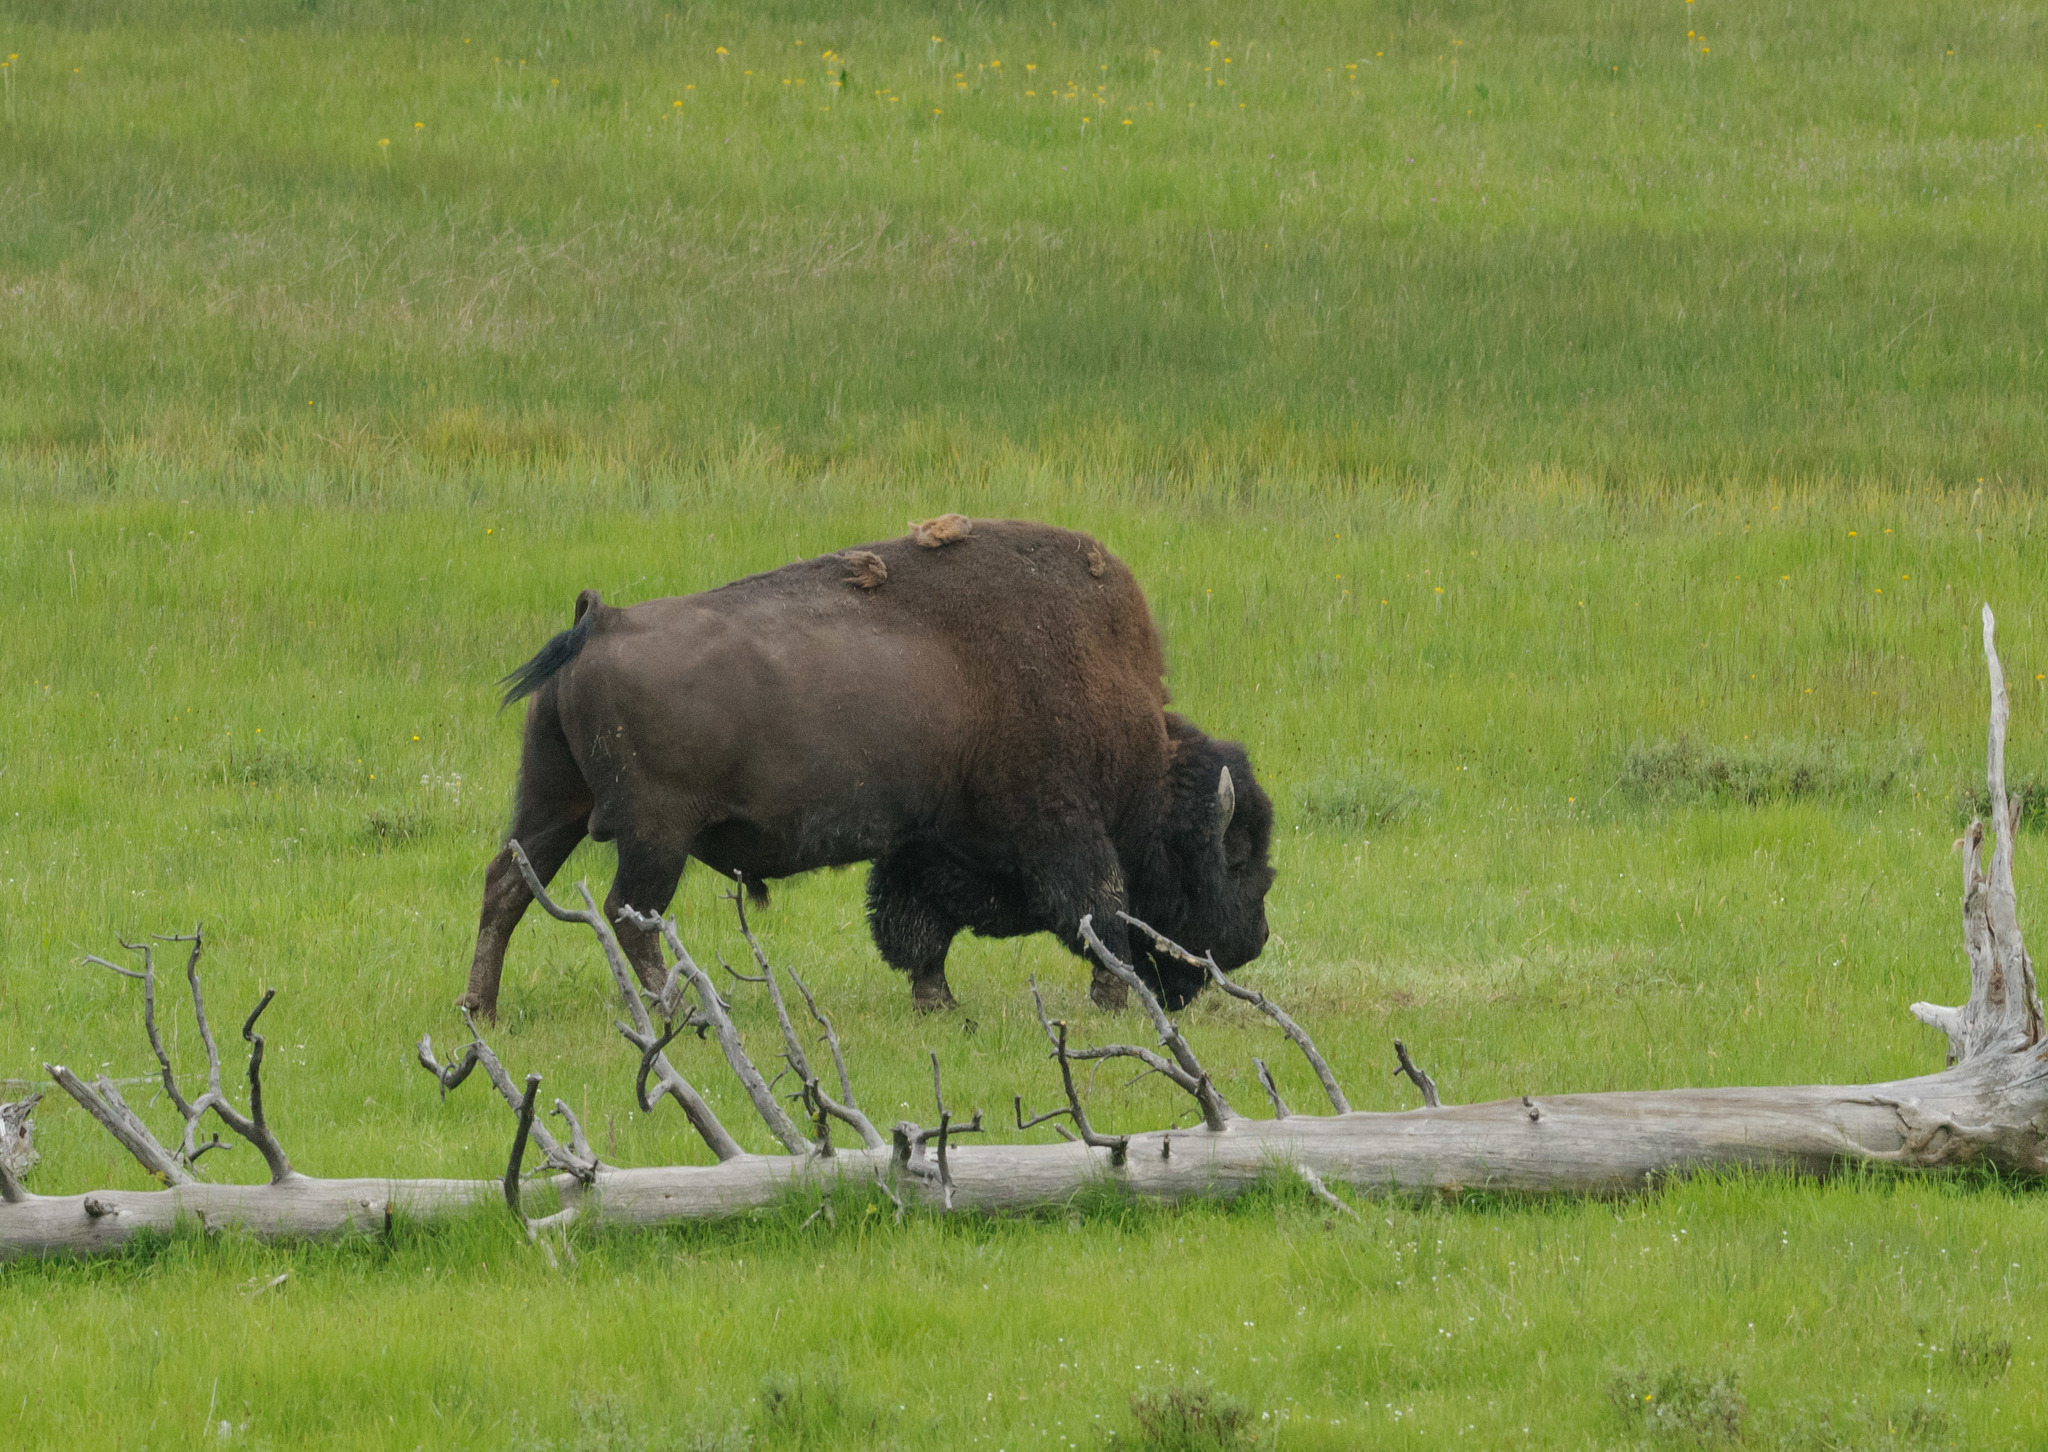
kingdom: Animalia
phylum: Chordata
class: Mammalia
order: Artiodactyla
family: Bovidae
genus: Bison
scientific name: Bison bison
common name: American bison
